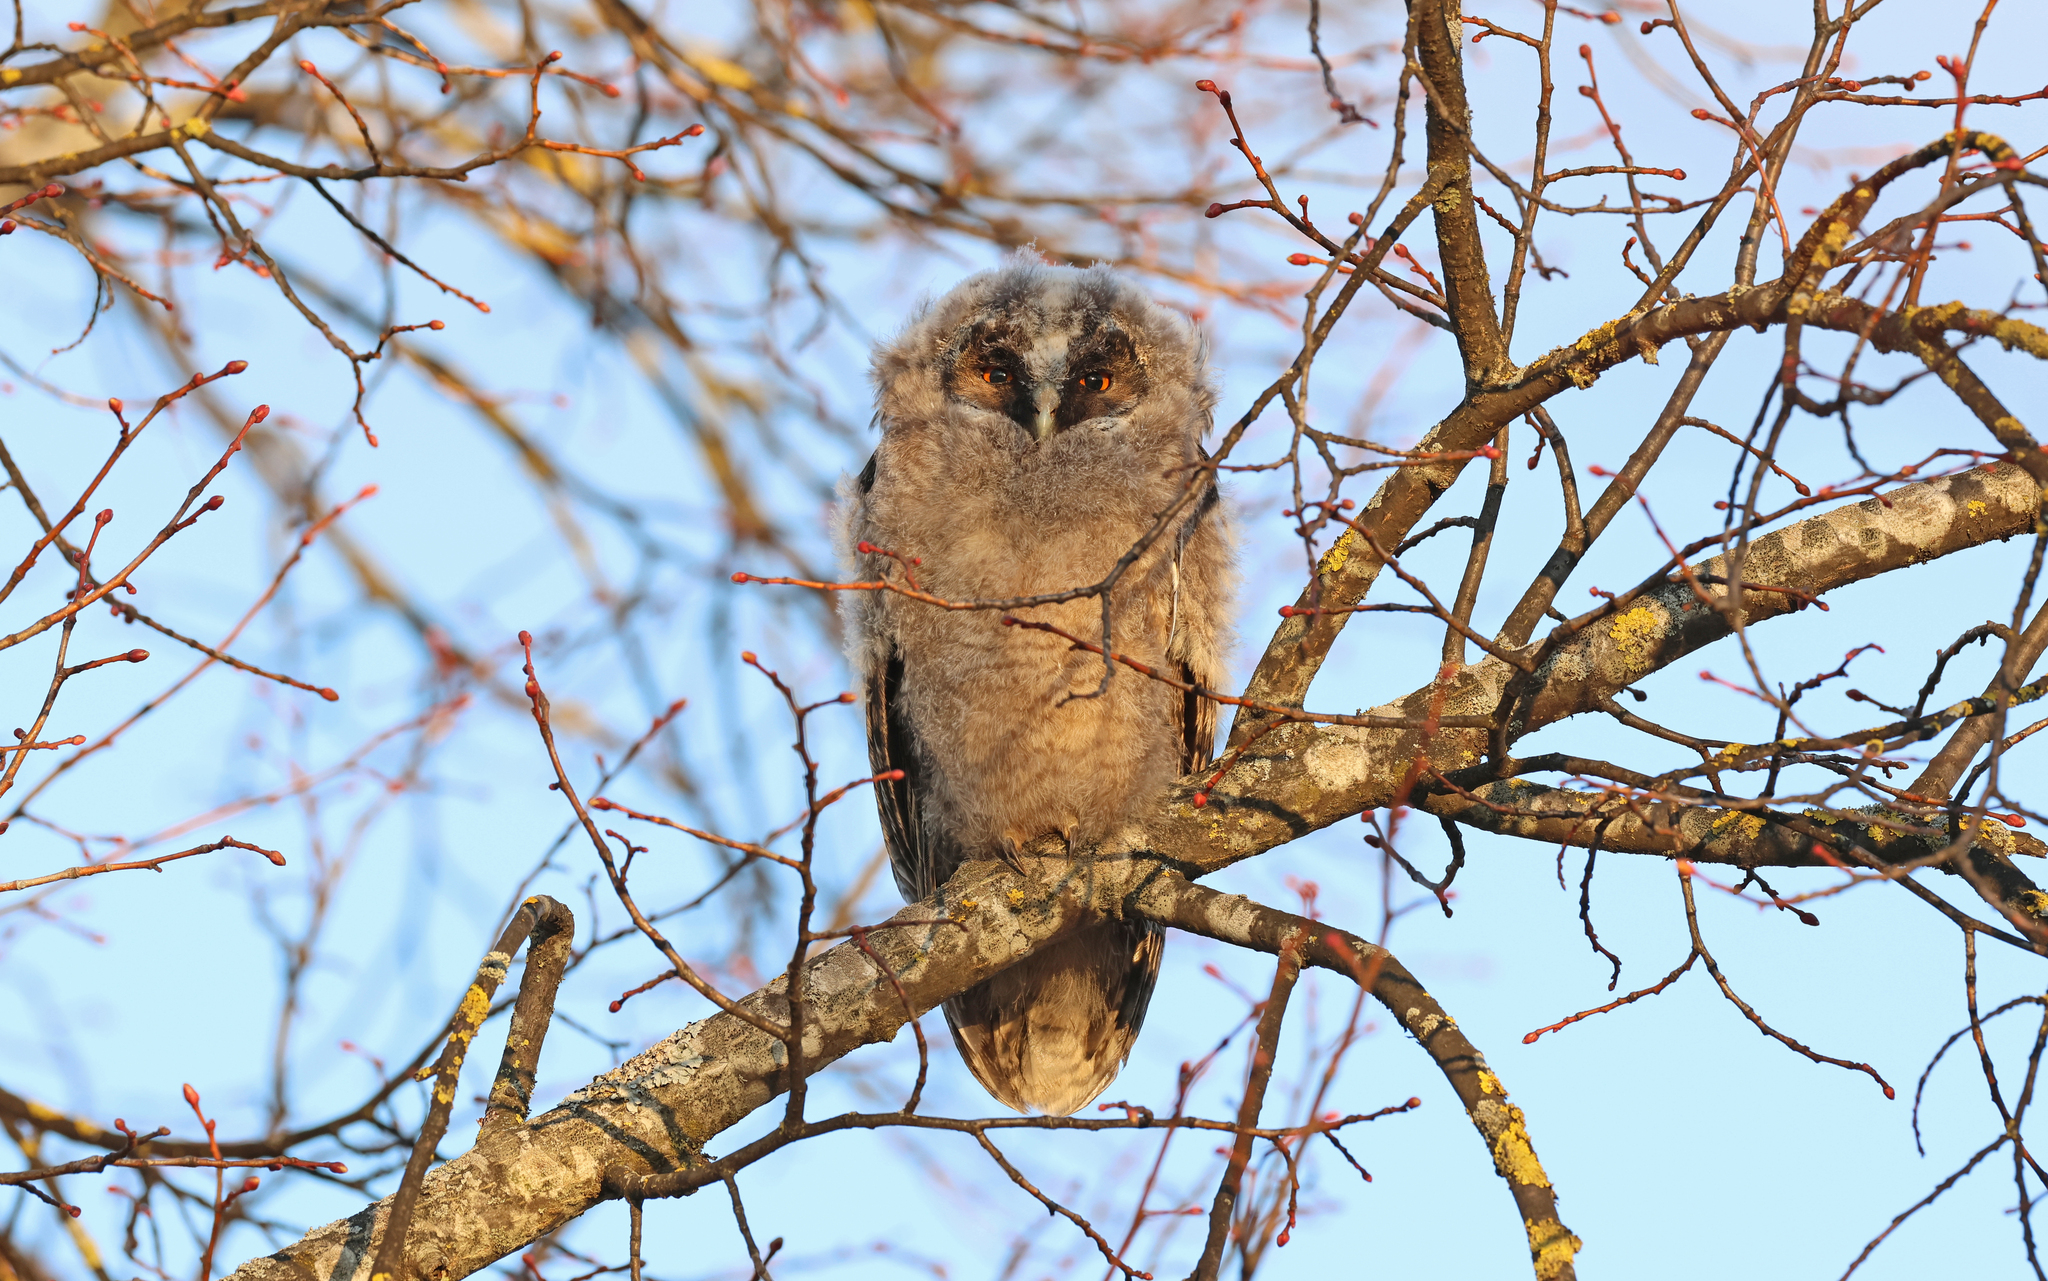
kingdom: Animalia
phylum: Chordata
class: Aves
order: Strigiformes
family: Strigidae
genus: Asio
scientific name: Asio otus
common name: Long-eared owl
